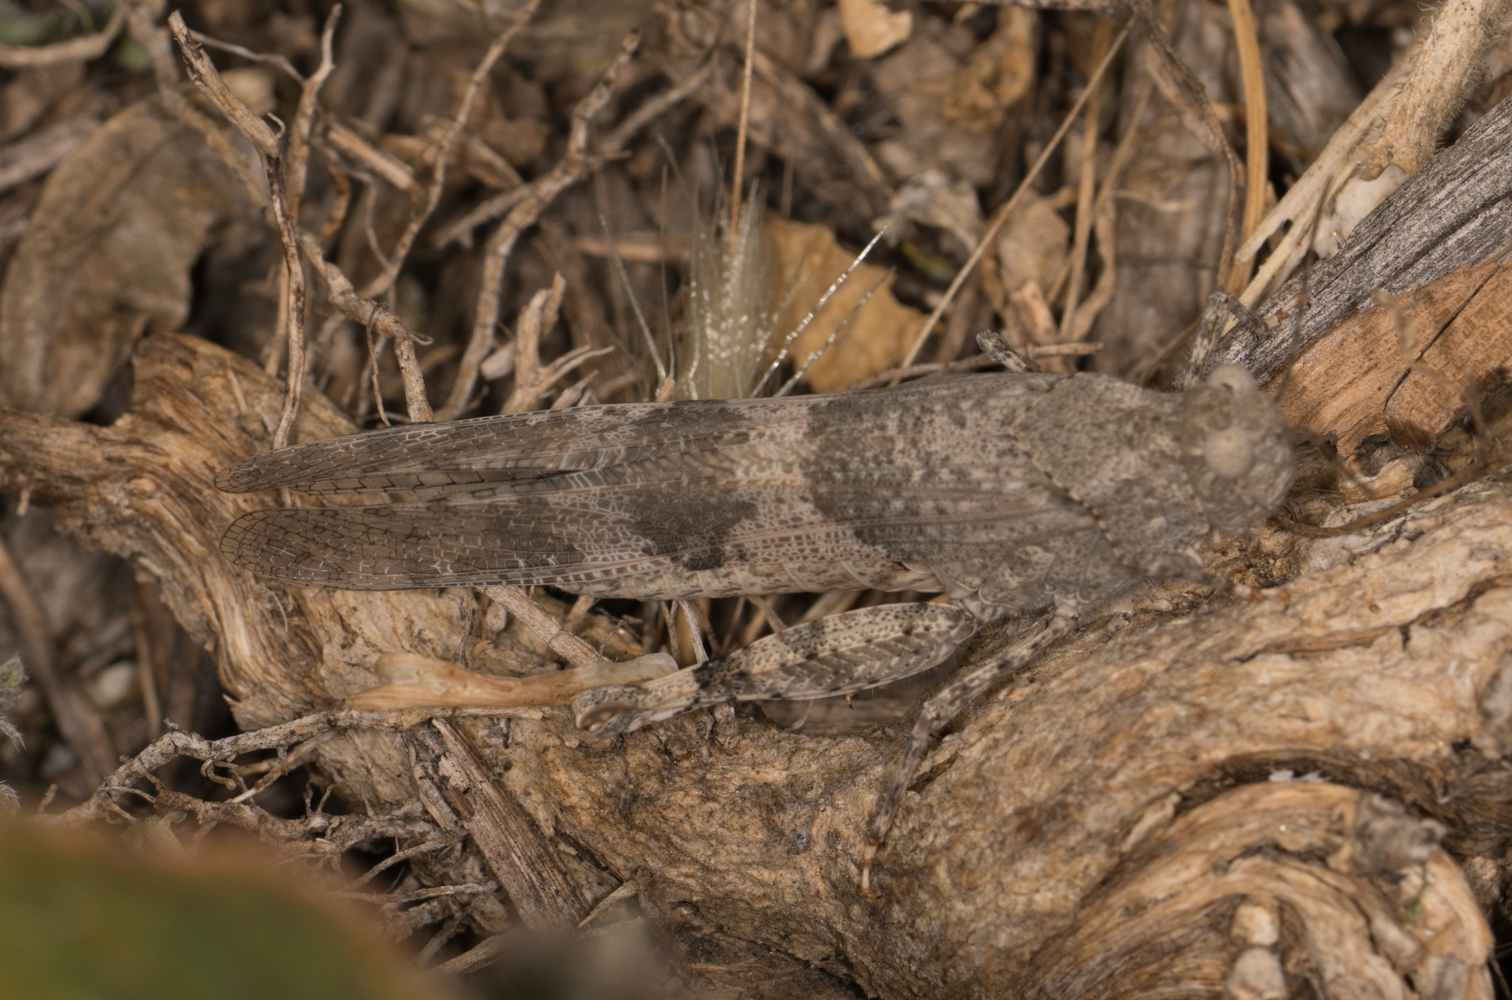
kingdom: Animalia
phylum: Arthropoda
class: Insecta
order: Orthoptera
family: Acrididae
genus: Trimerotropis
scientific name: Trimerotropis pallidipennis
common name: Pallid-winged grasshopper
